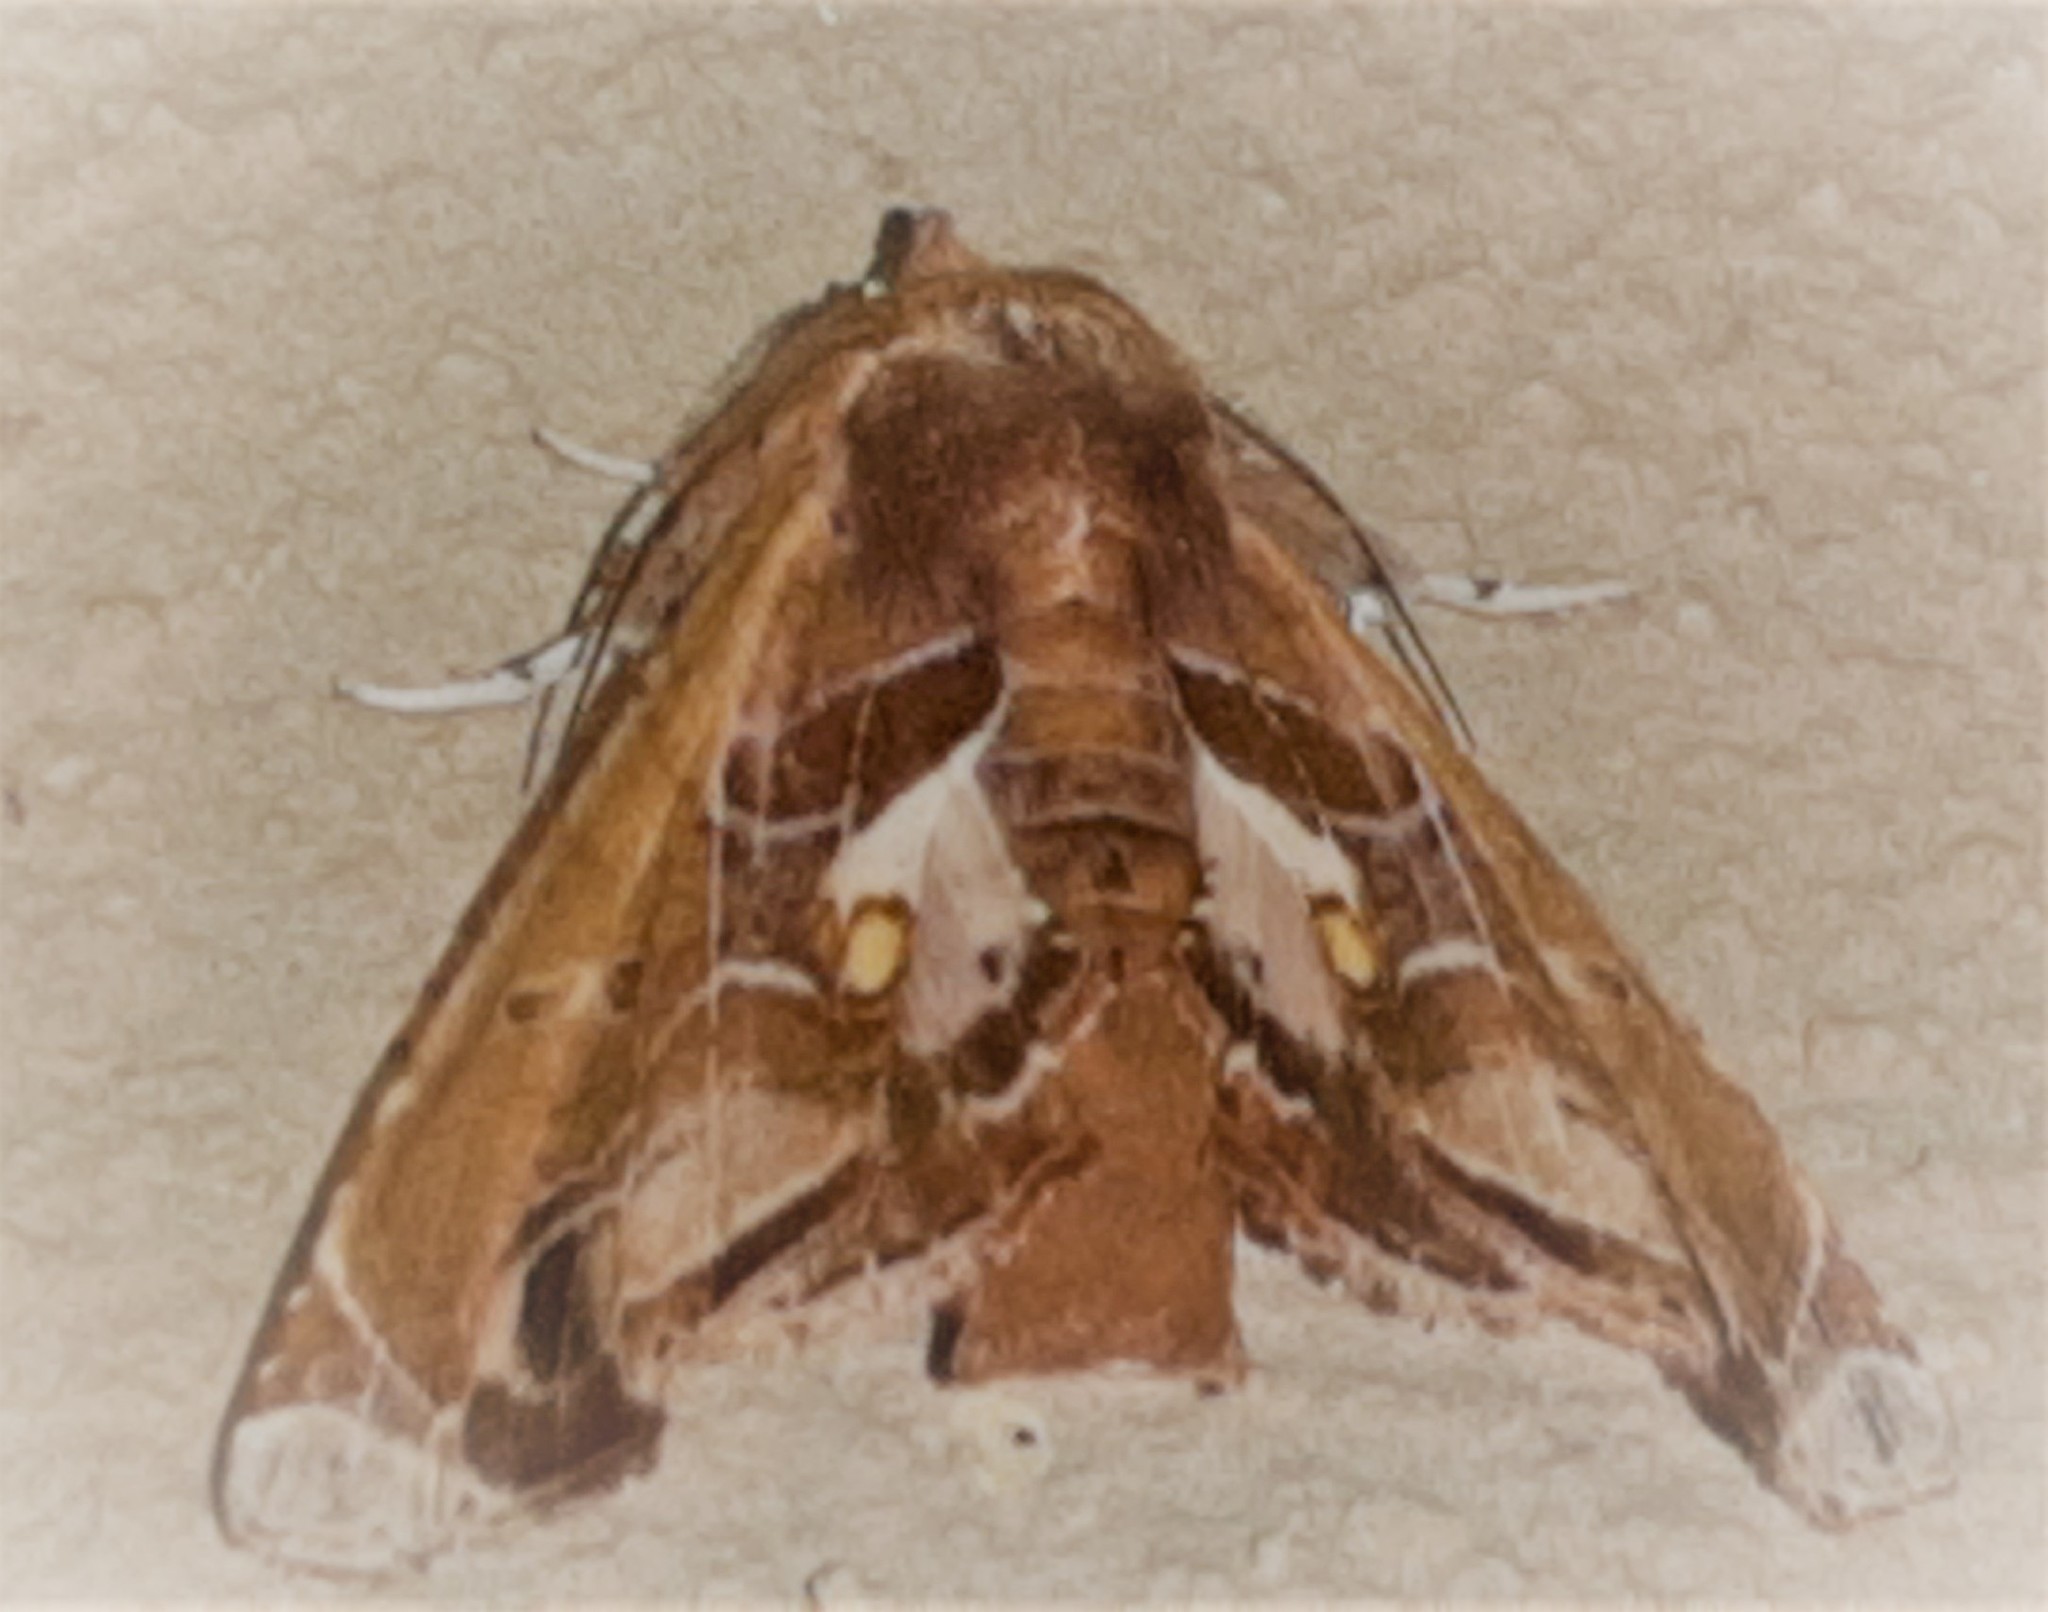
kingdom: Animalia
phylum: Arthropoda
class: Insecta
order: Lepidoptera
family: Euteliidae
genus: Eutelia
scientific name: Eutelia abscondens
